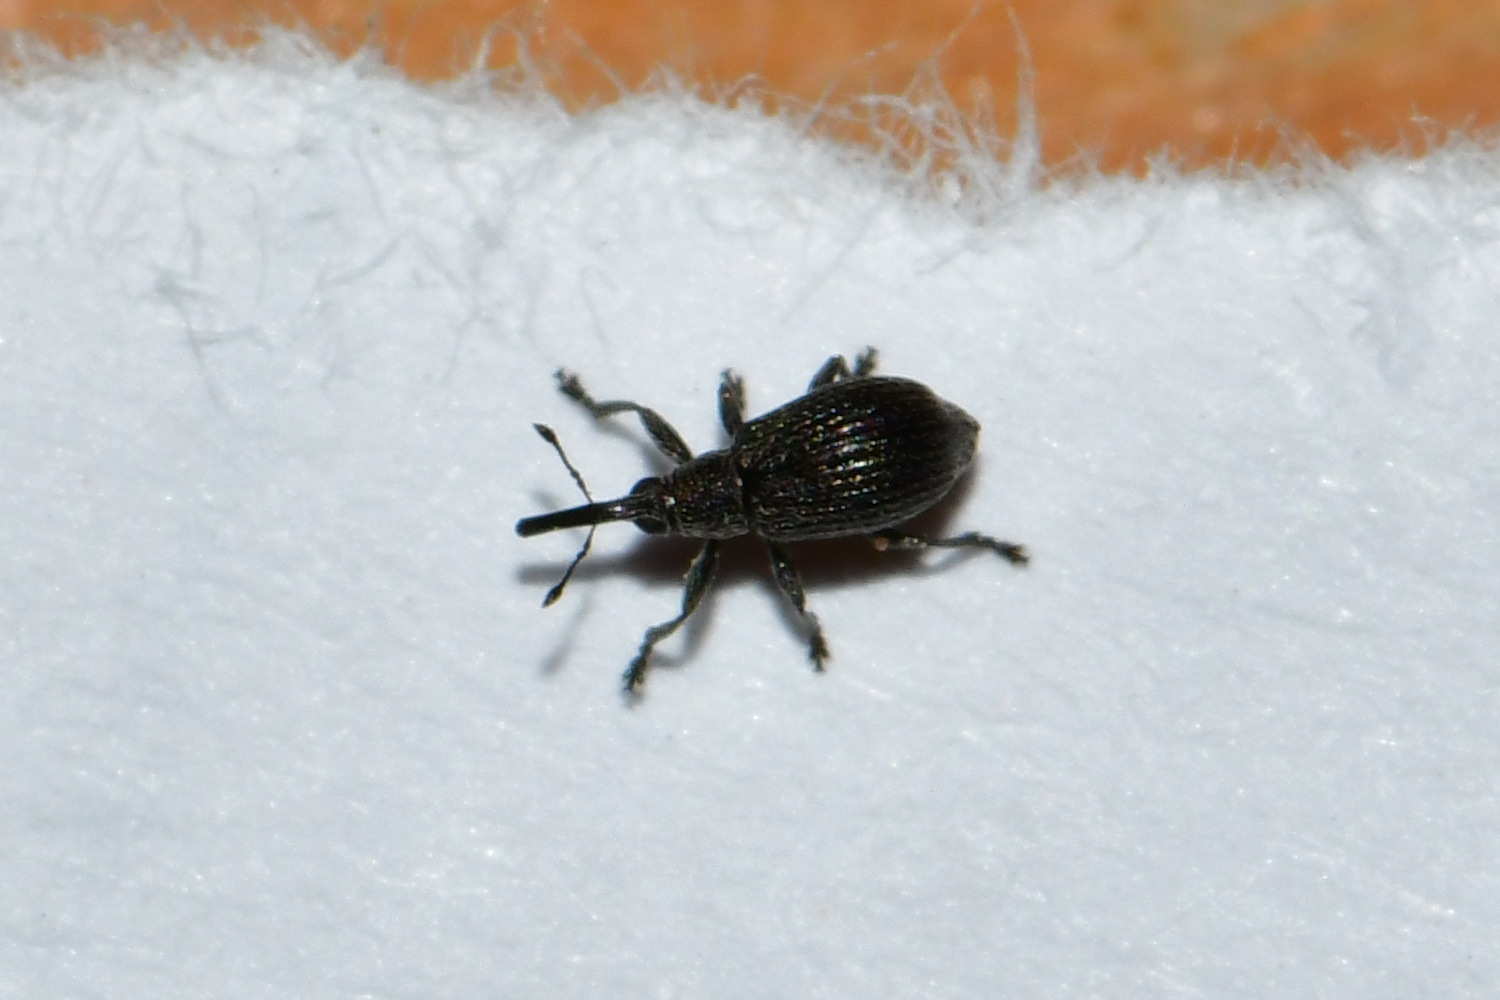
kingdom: Animalia
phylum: Arthropoda
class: Insecta
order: Coleoptera
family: Brentidae
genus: Betulapion
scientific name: Betulapion simile
